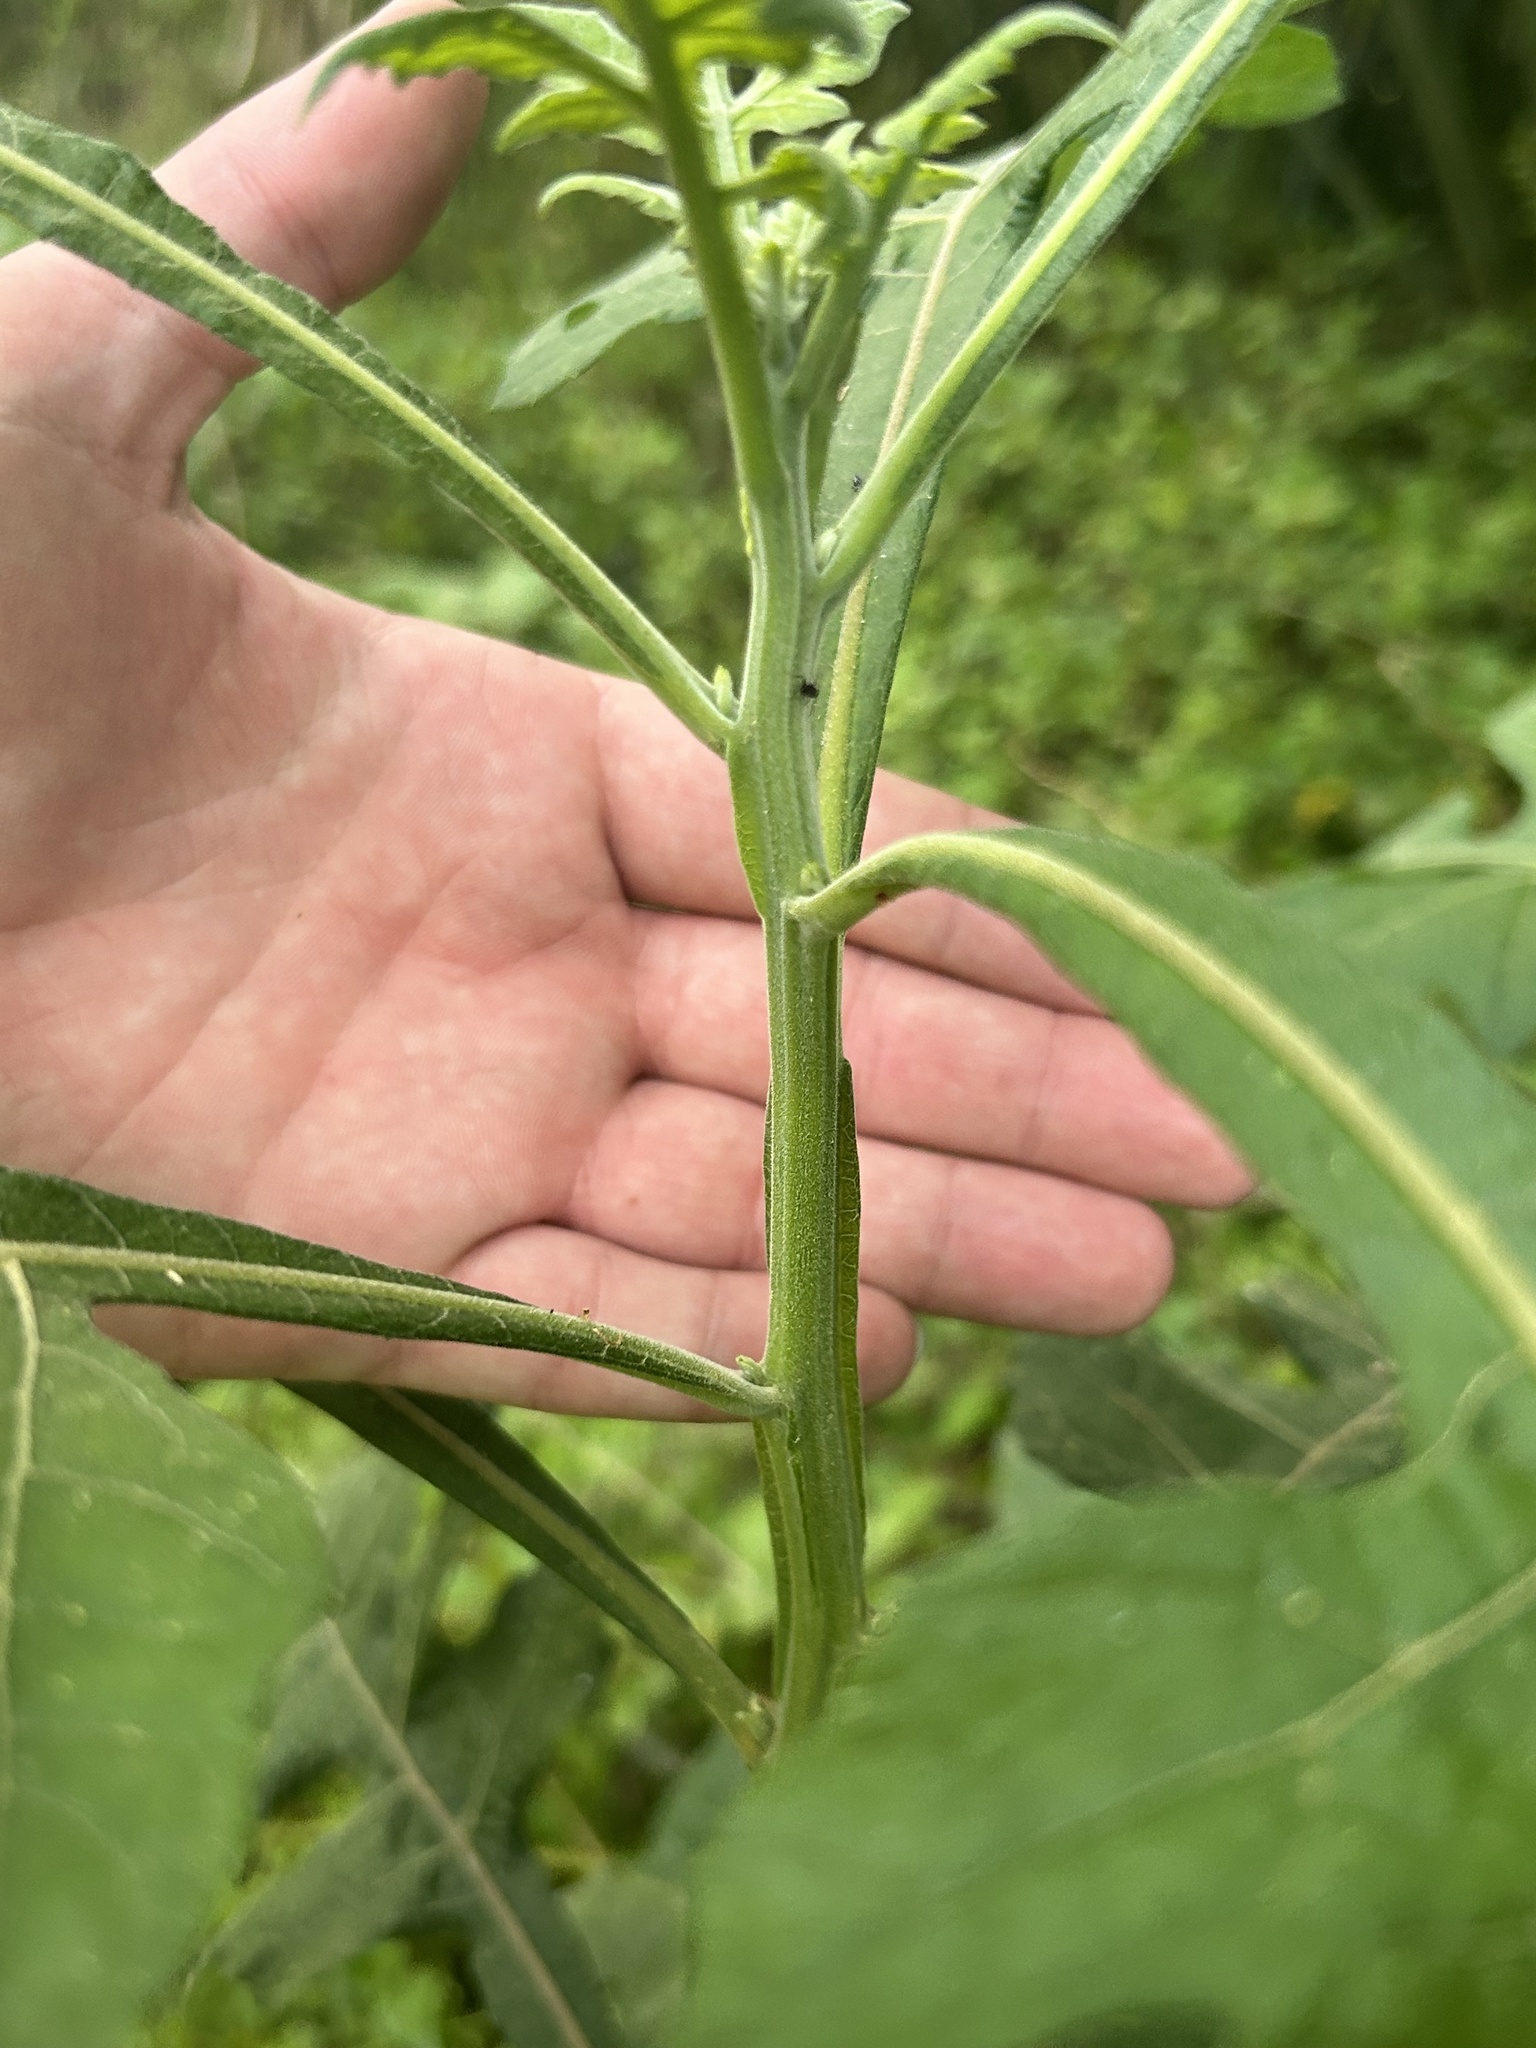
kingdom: Plantae
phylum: Tracheophyta
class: Magnoliopsida
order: Asterales
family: Asteraceae
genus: Verbesina
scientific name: Verbesina virginica
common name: Frostweed
